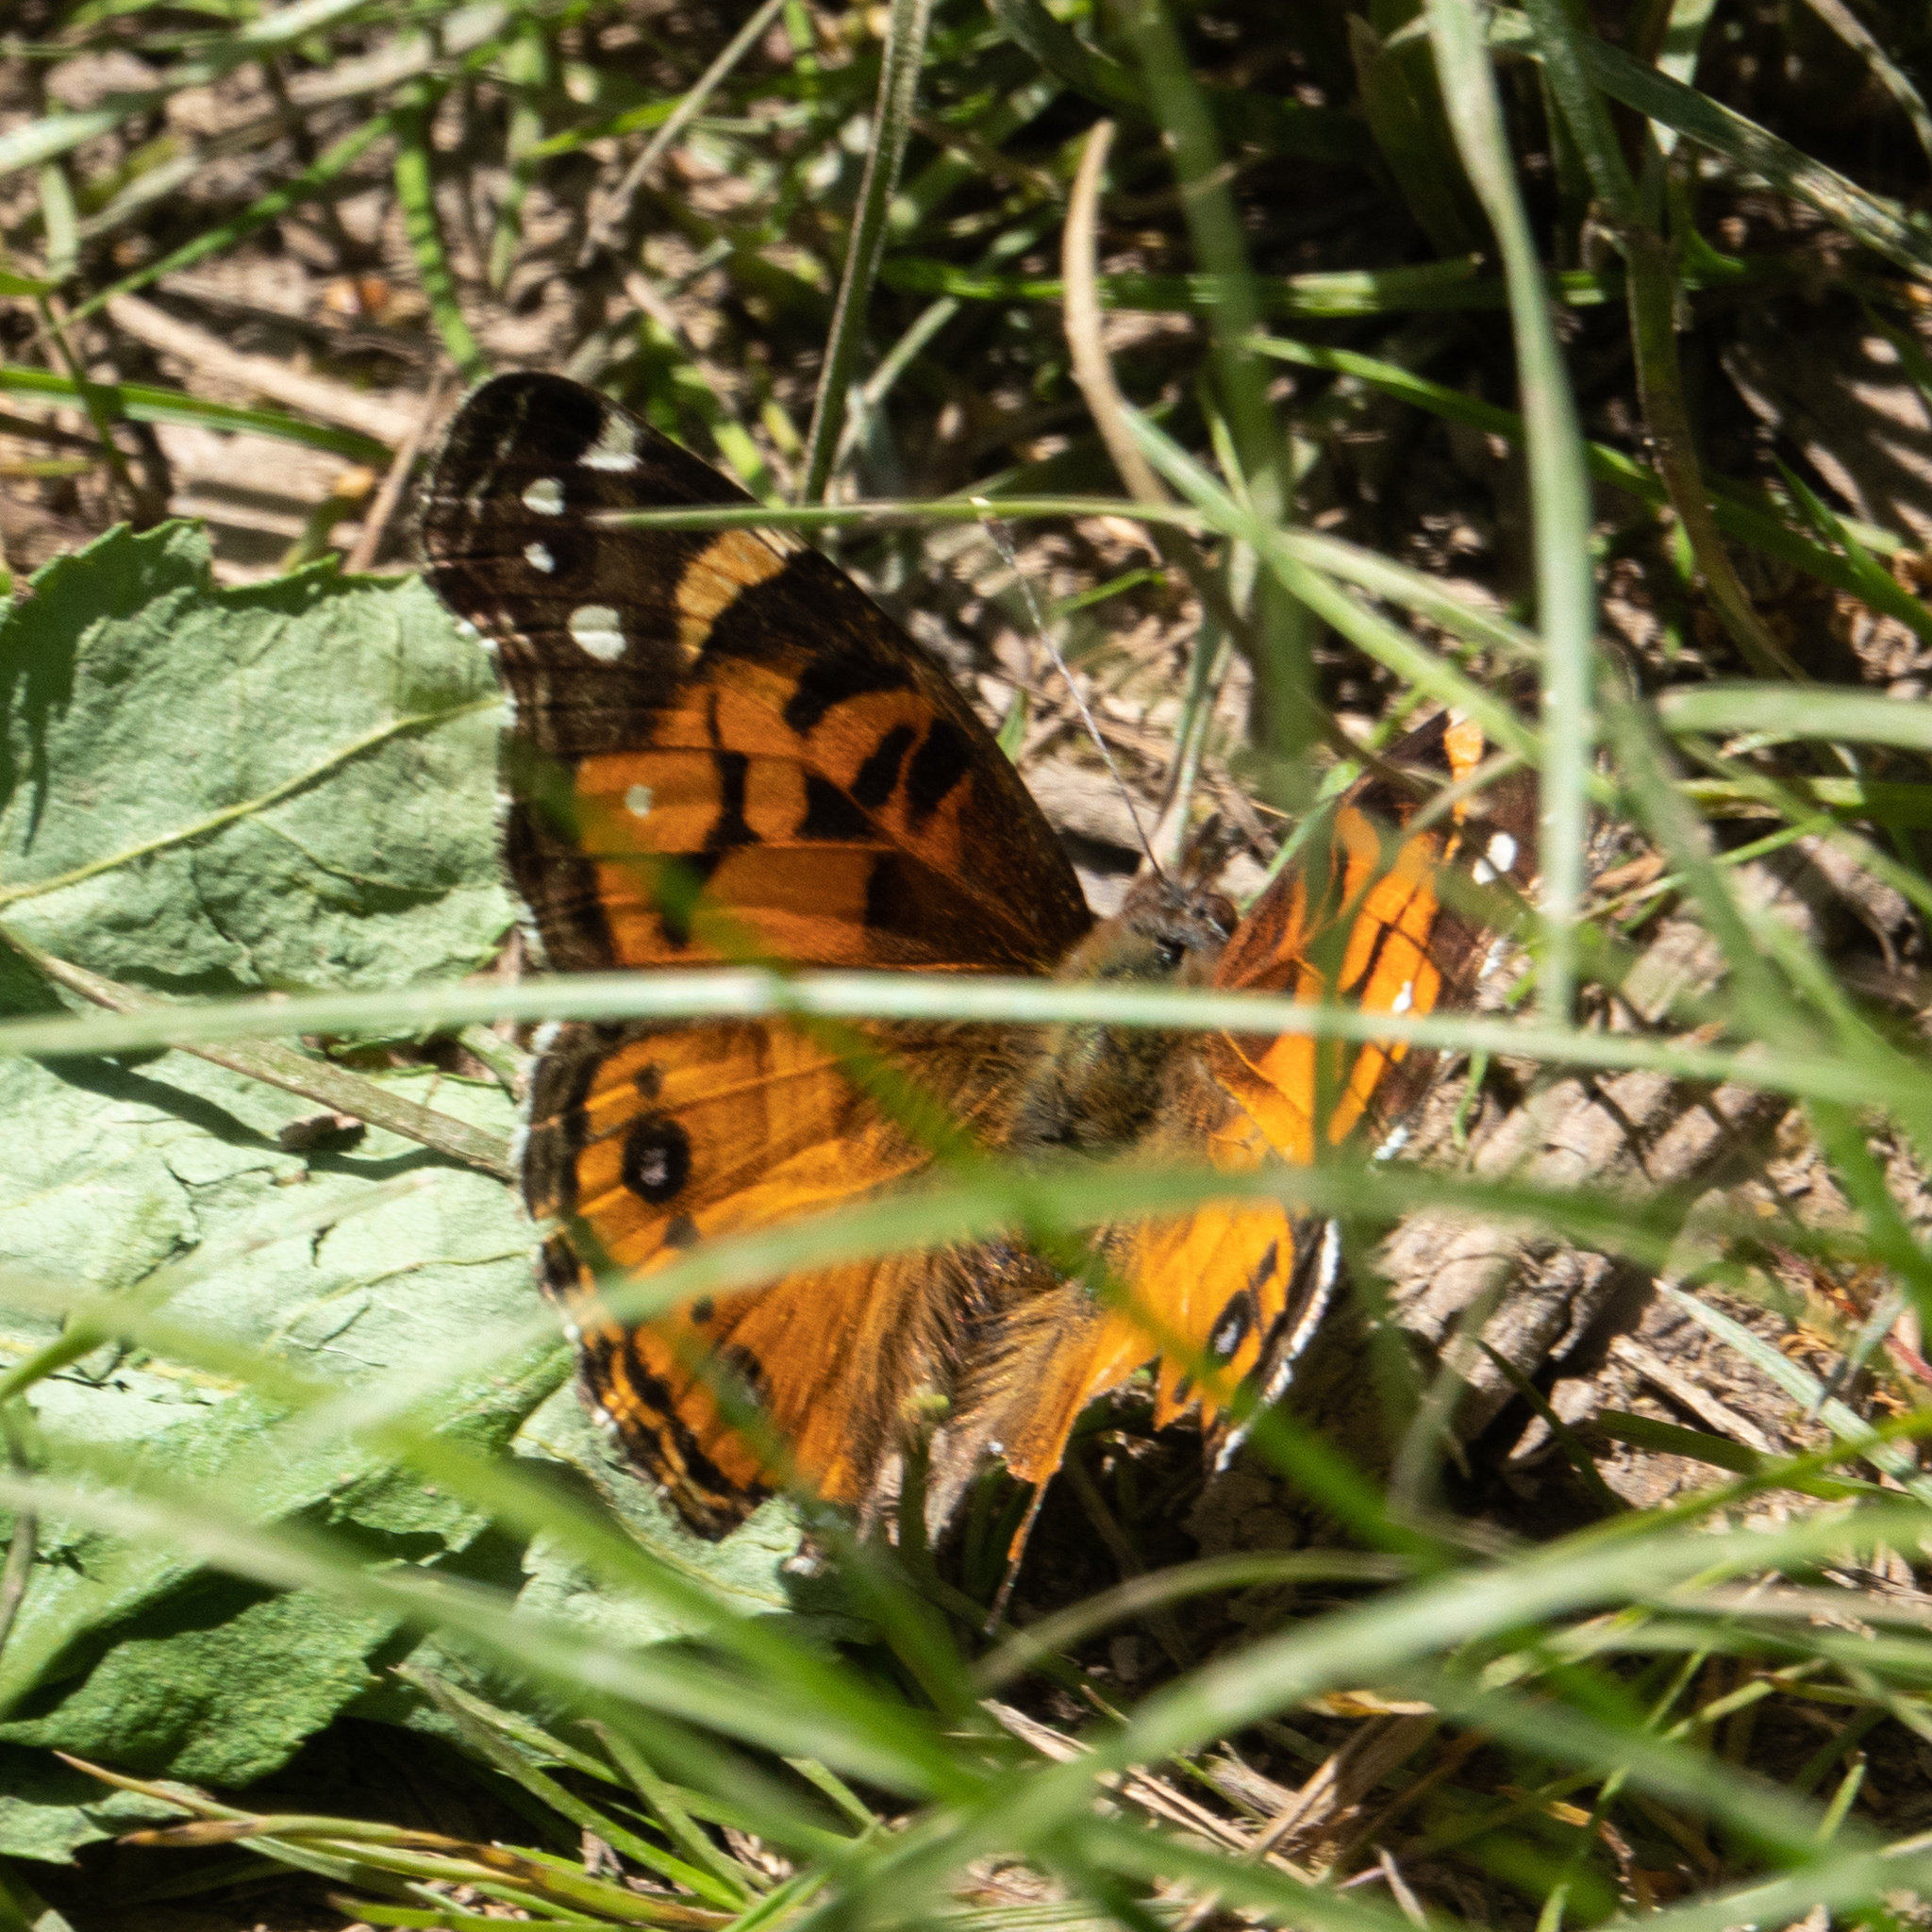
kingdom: Animalia
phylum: Arthropoda
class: Insecta
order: Lepidoptera
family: Nymphalidae
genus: Vanessa
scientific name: Vanessa virginiensis
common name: American lady
